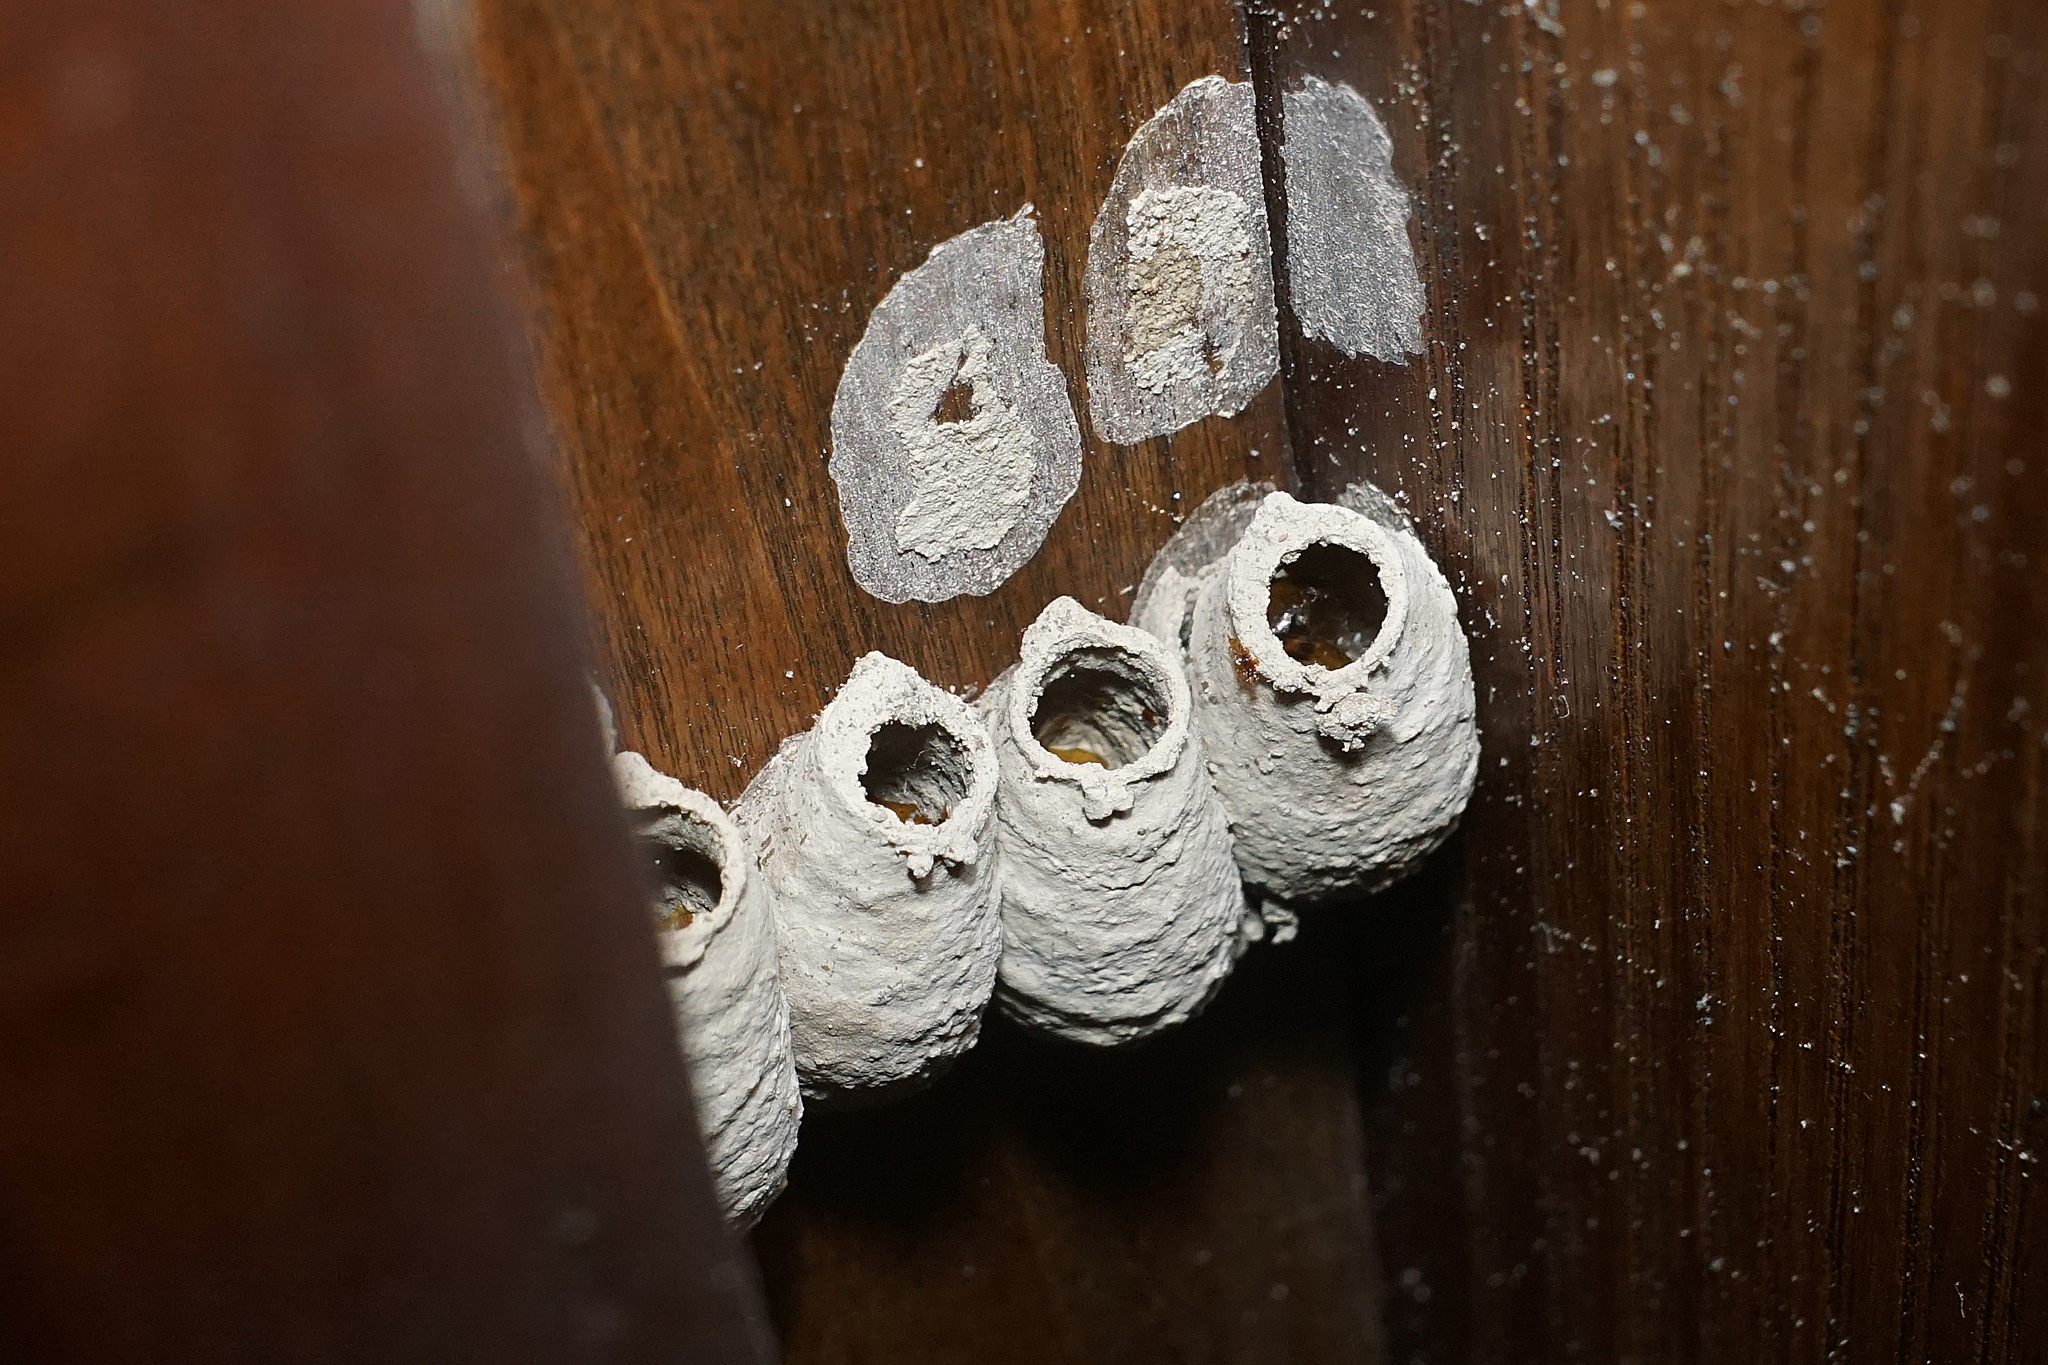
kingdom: Animalia
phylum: Arthropoda
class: Insecta
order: Hymenoptera
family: Sphecidae
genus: Sceliphron
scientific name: Sceliphron curvatum
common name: Pèlopèe
